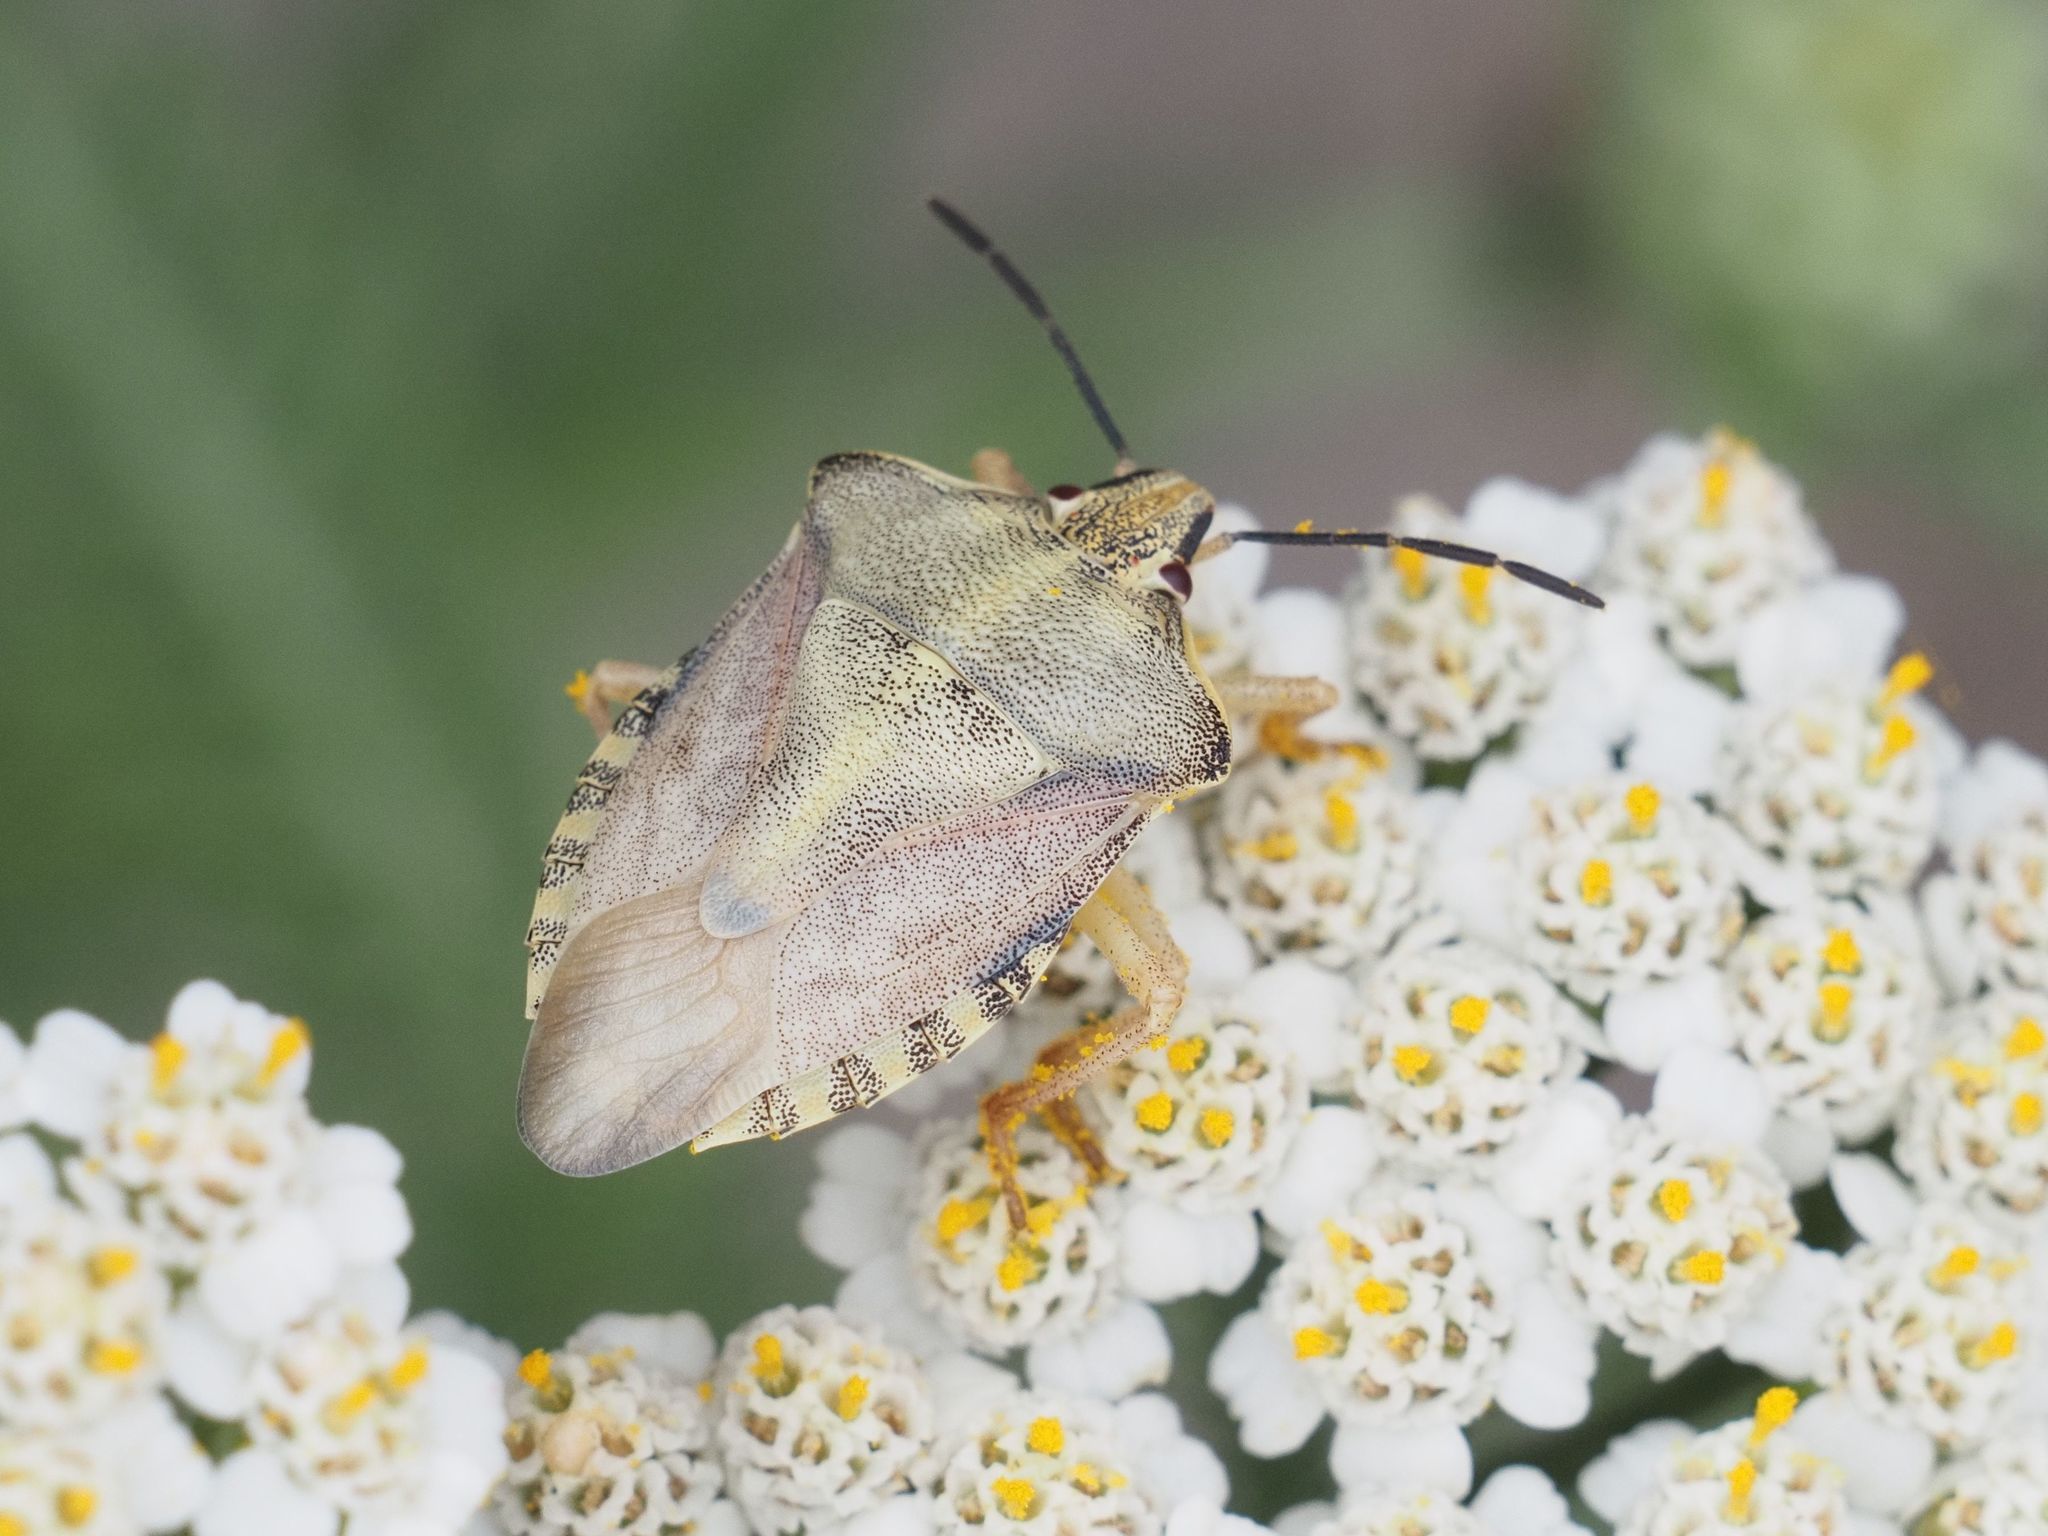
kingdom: Animalia
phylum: Arthropoda
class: Insecta
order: Hemiptera
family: Pentatomidae
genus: Carpocoris
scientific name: Carpocoris purpureipennis
